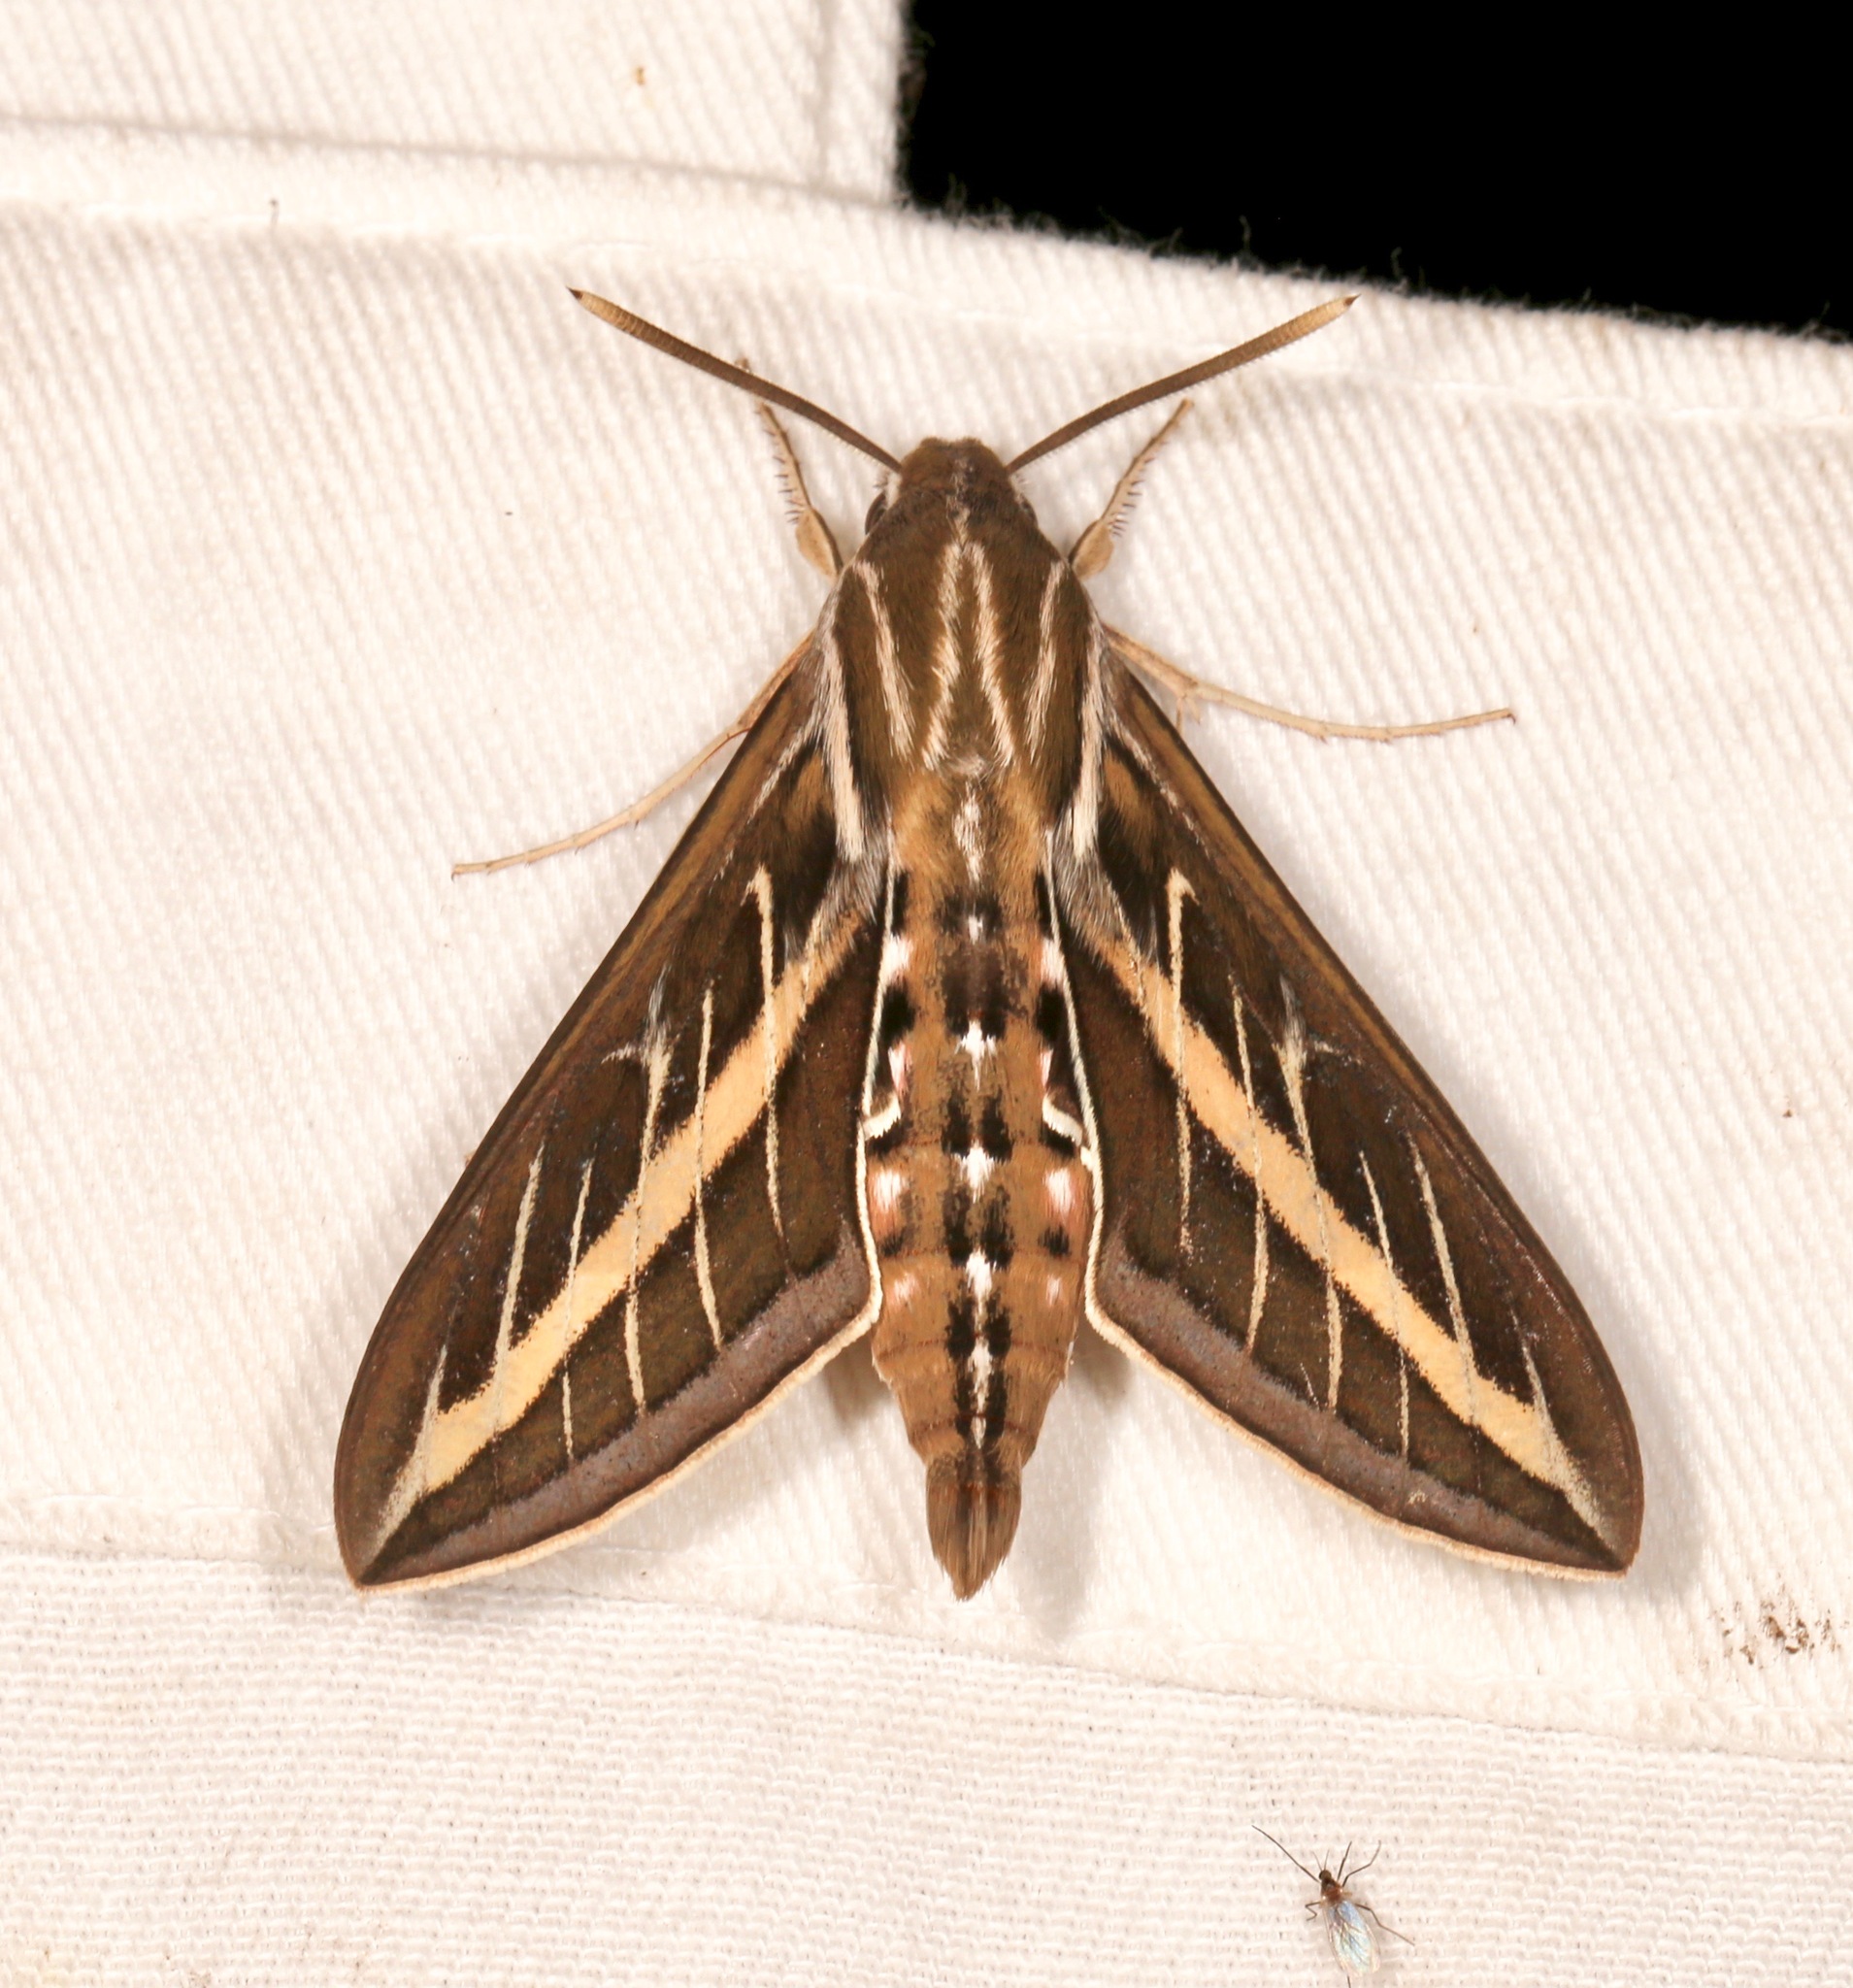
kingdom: Animalia
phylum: Arthropoda
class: Insecta
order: Lepidoptera
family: Sphingidae
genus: Hyles
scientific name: Hyles lineata
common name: White-lined sphinx
